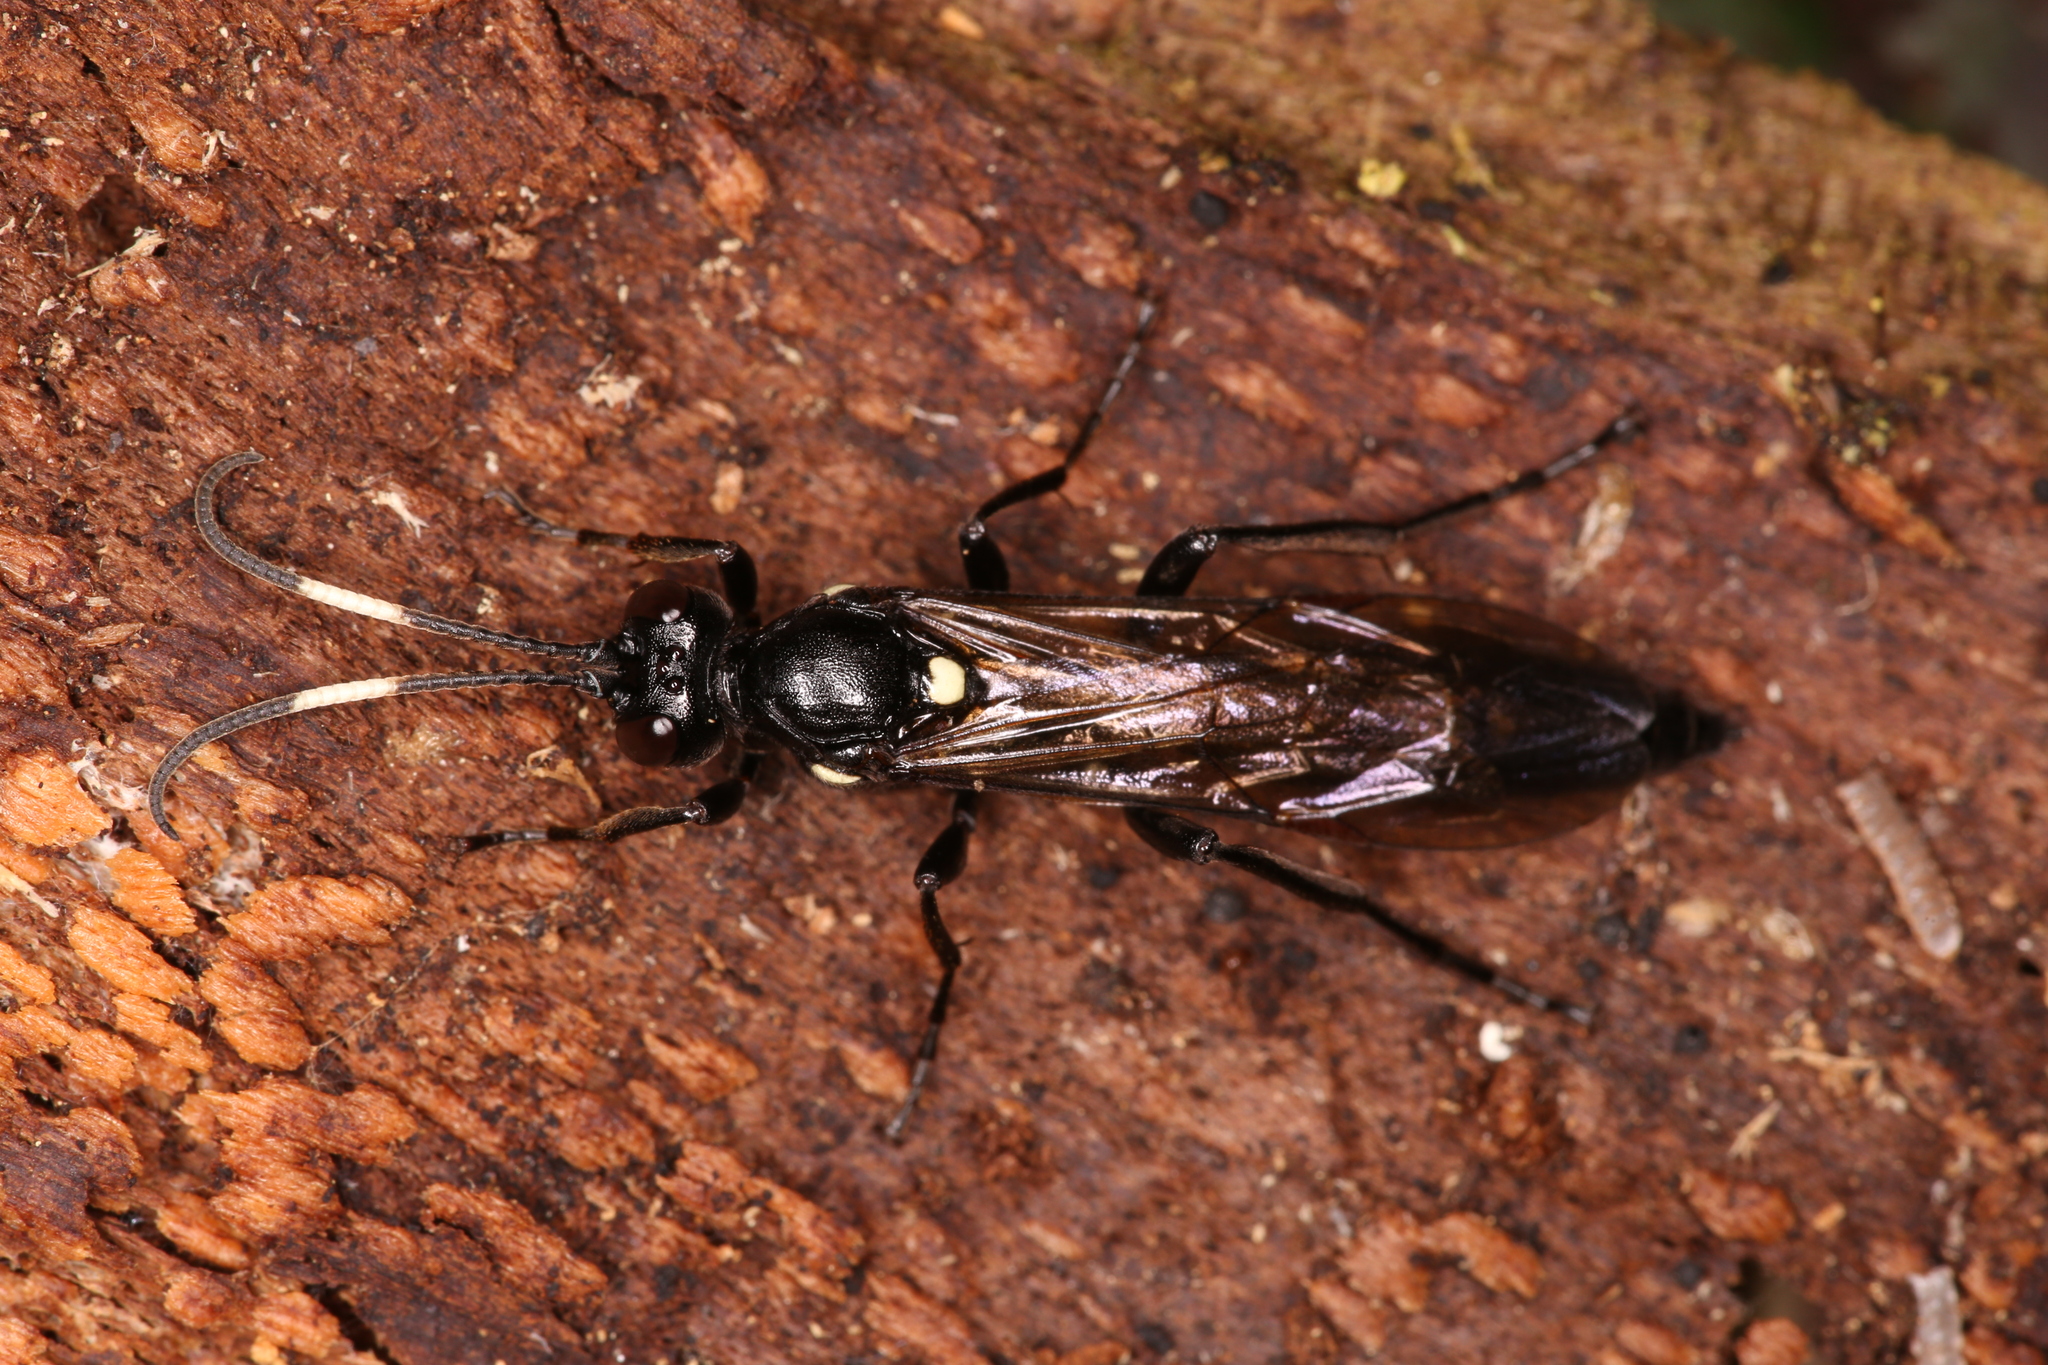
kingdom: Animalia
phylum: Arthropoda
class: Insecta
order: Hymenoptera
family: Ichneumonidae
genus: Ichneumon
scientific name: Ichneumon lugens
